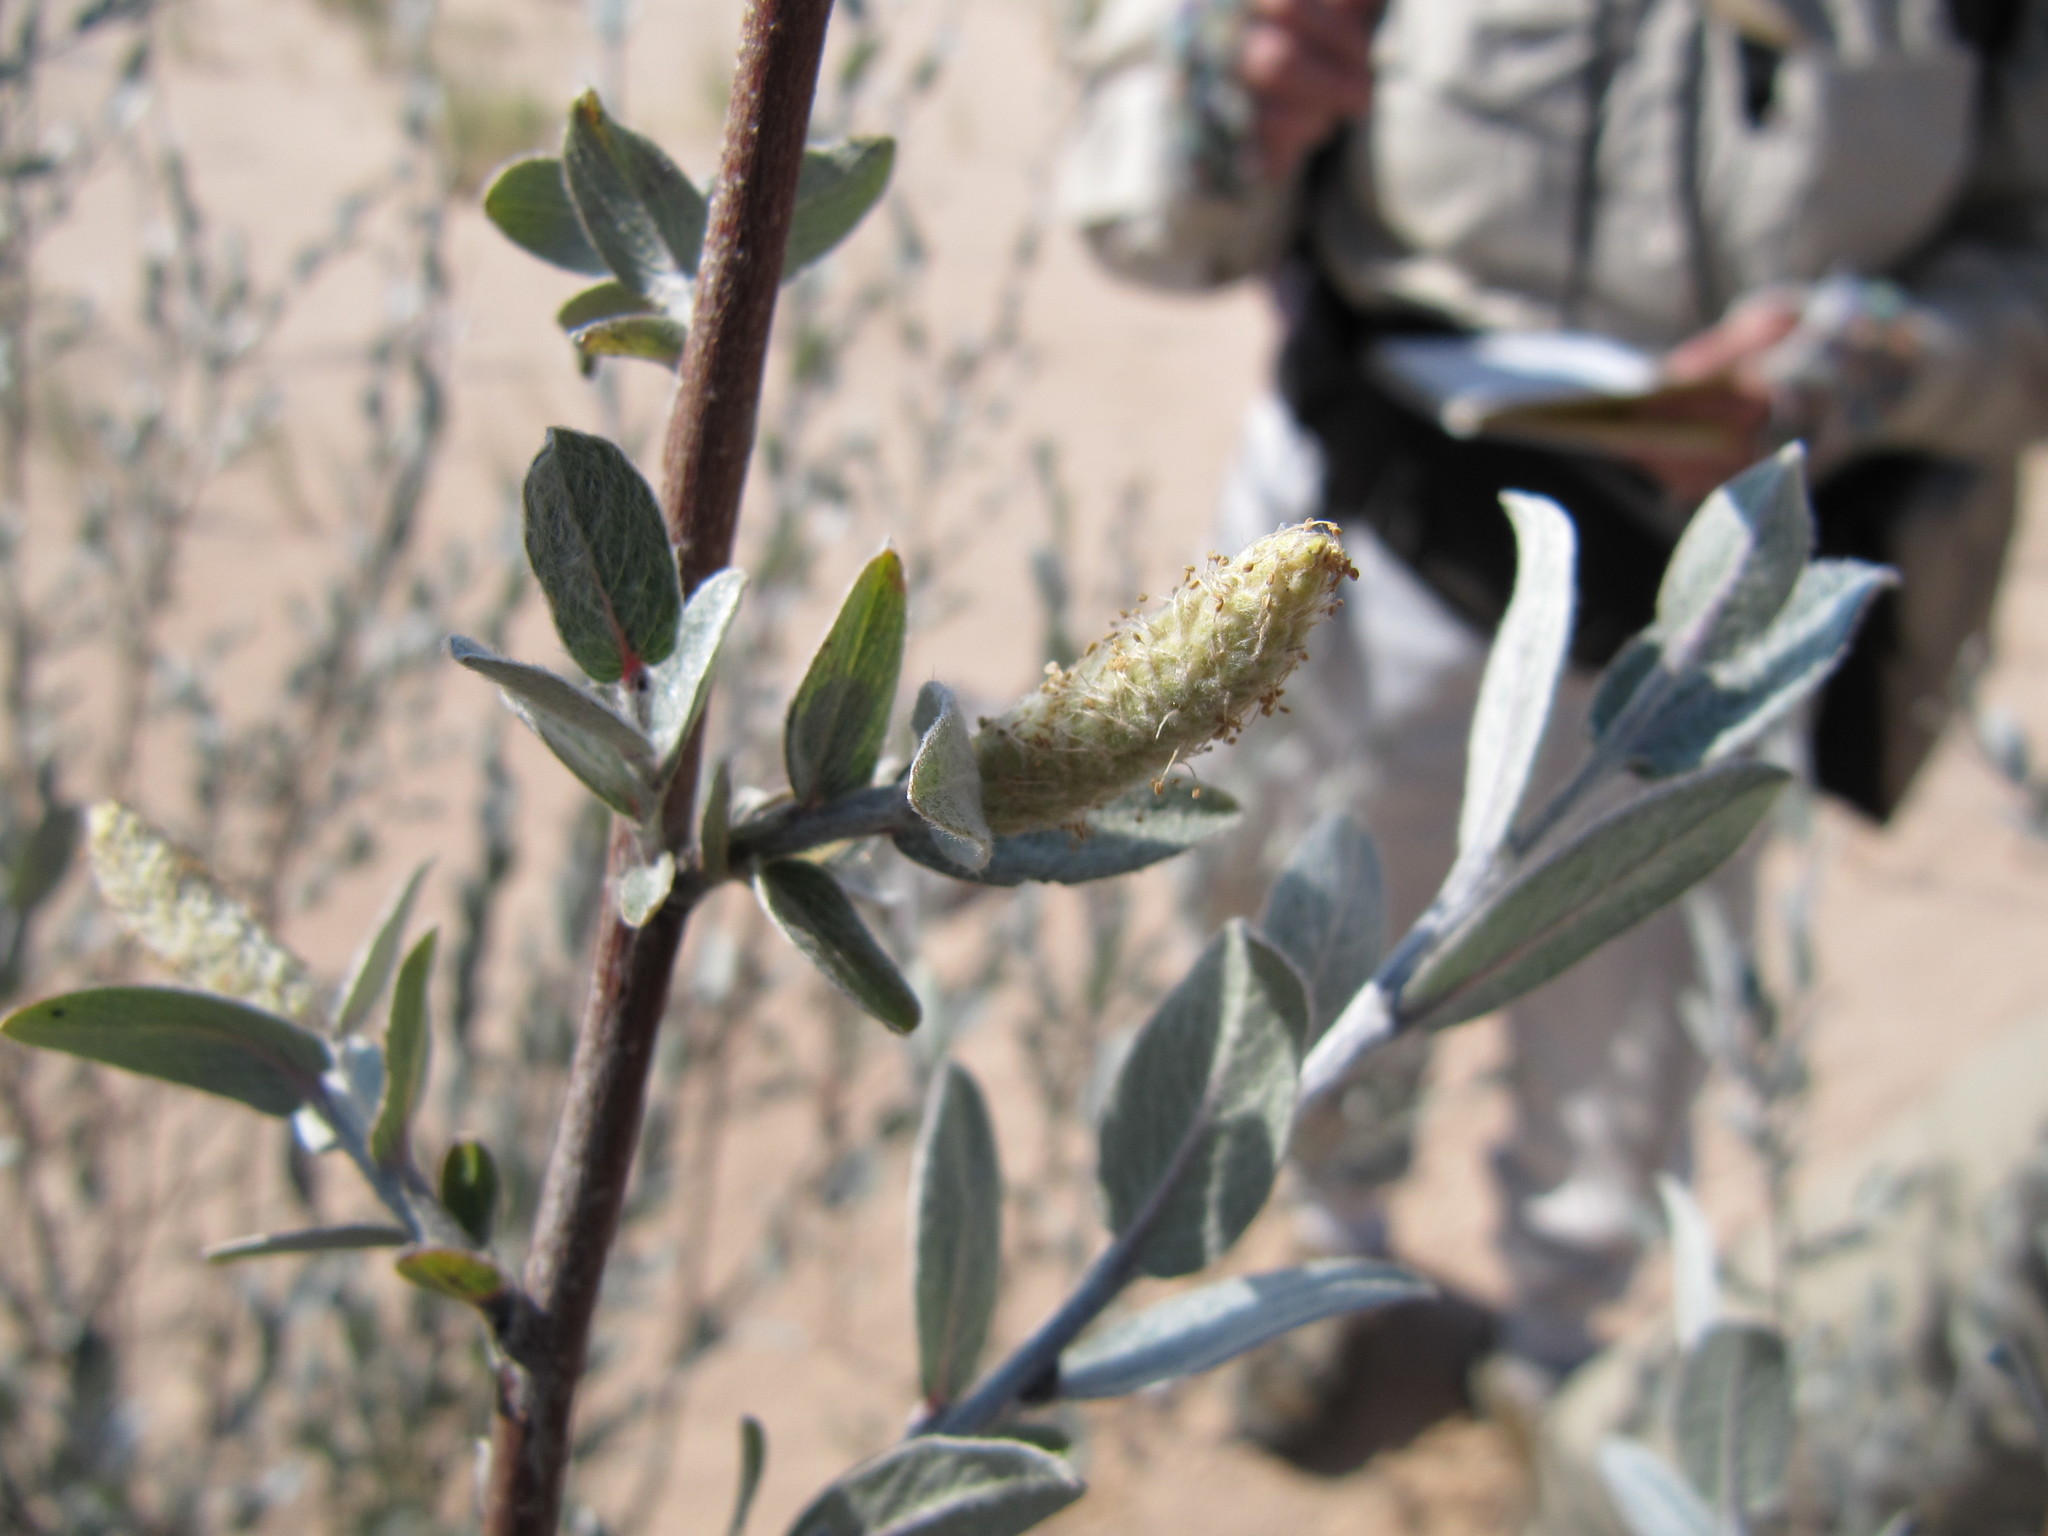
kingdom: Plantae
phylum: Tracheophyta
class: Magnoliopsida
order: Malpighiales
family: Salicaceae
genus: Salix
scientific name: Salix silicicola
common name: Blanket-leaved willow
